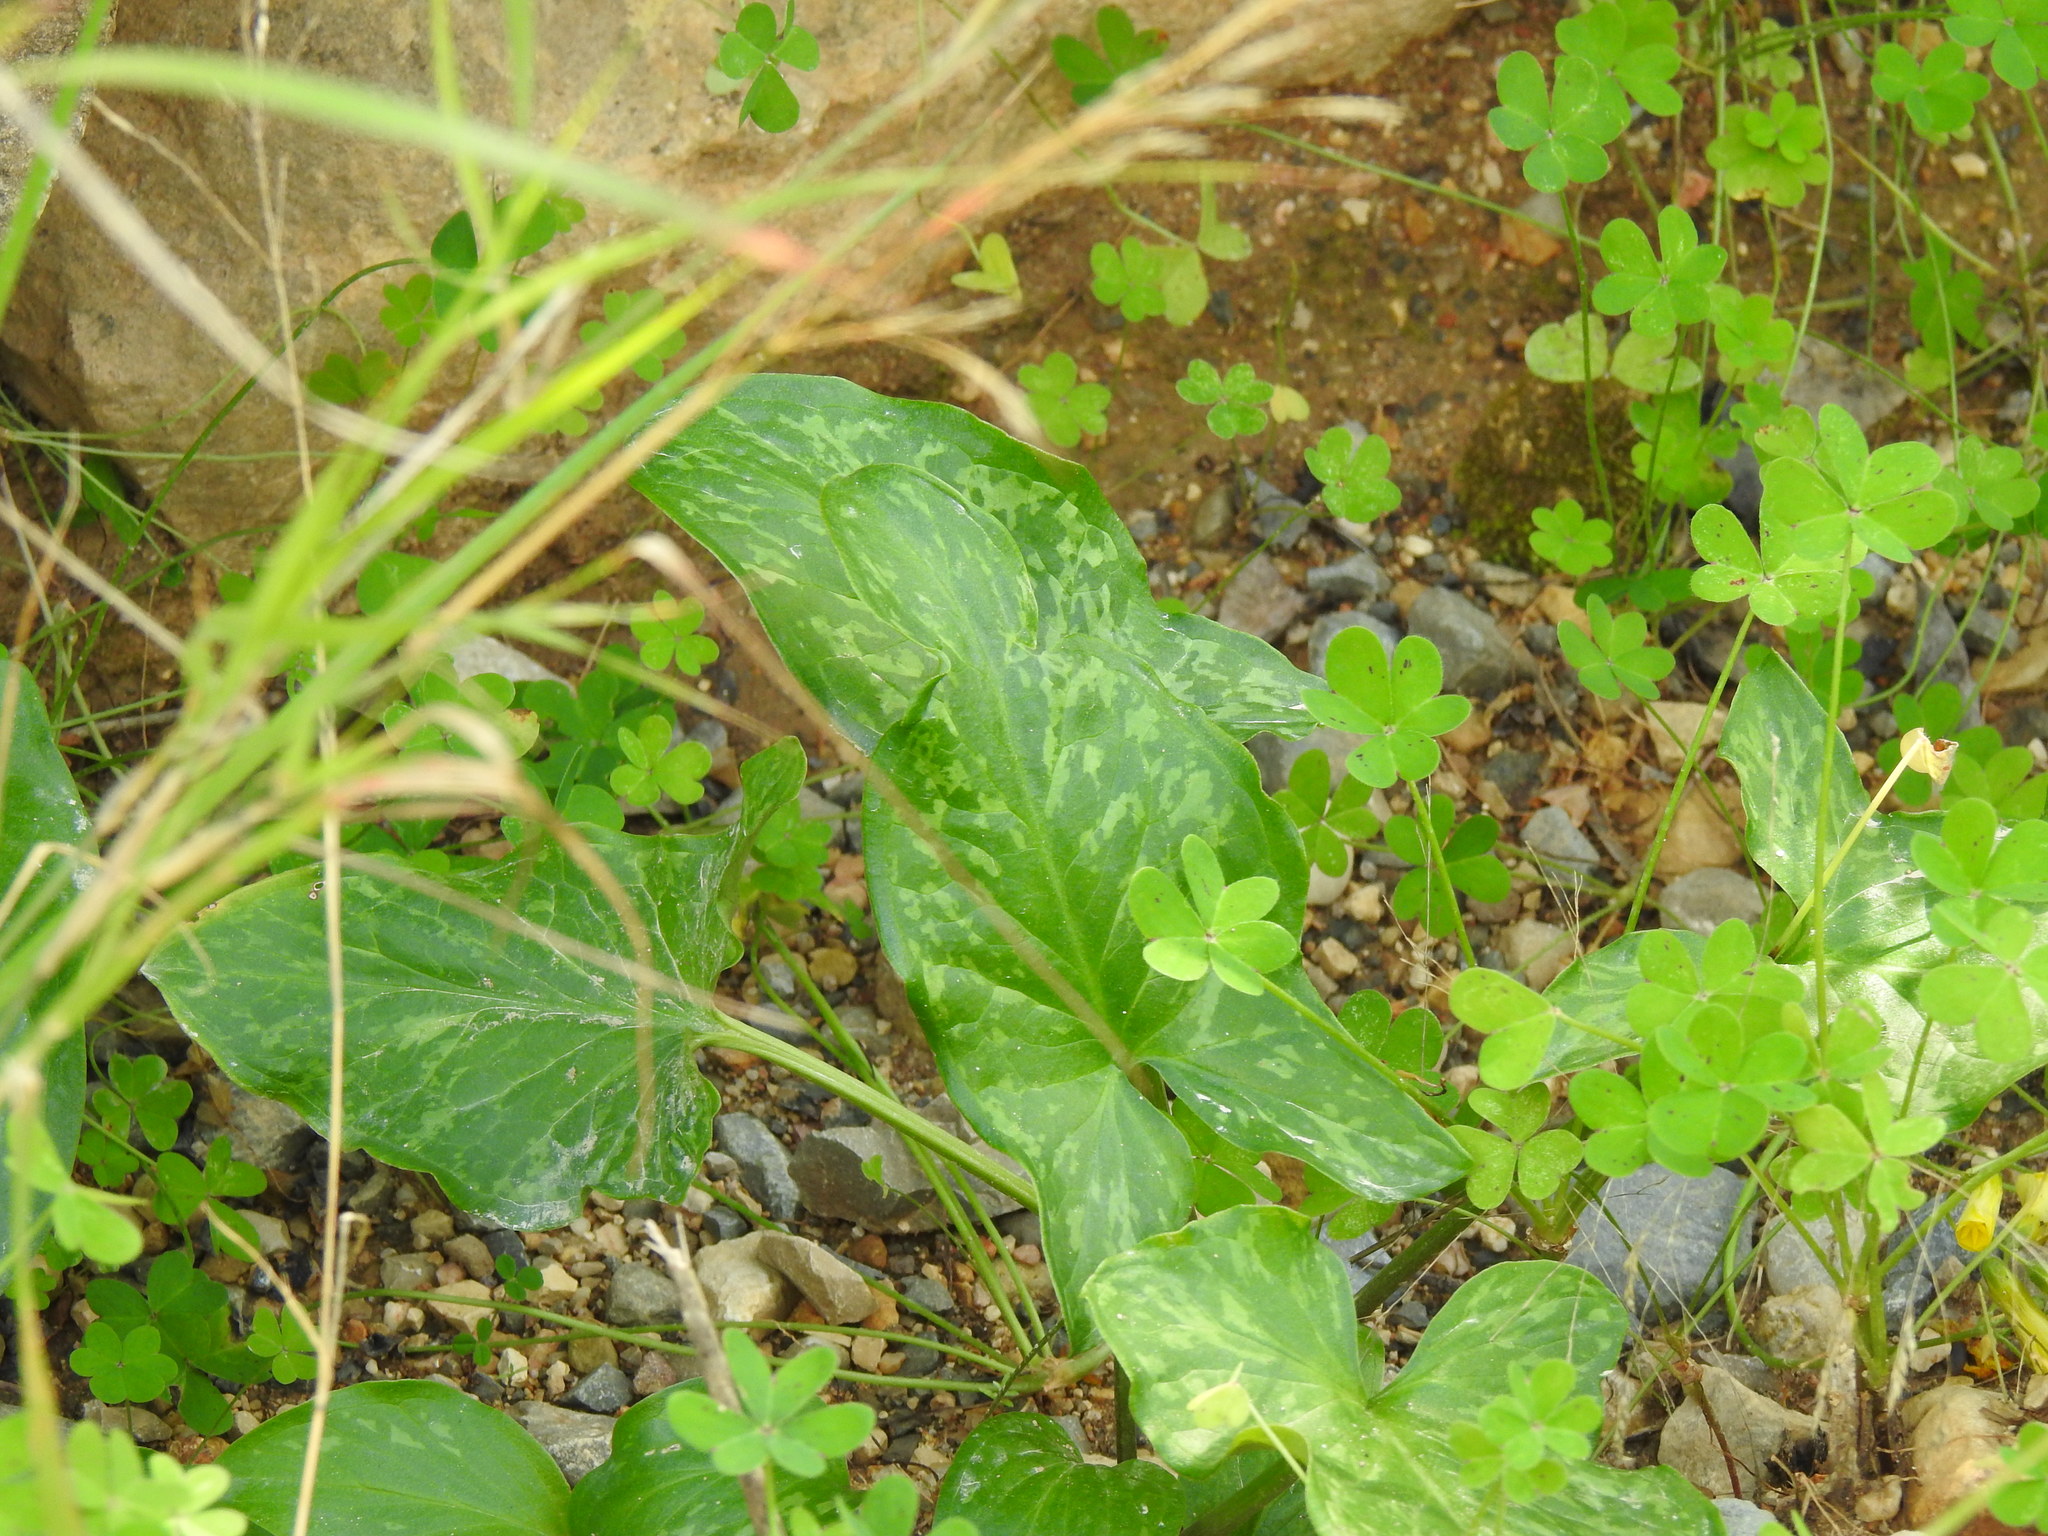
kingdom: Plantae
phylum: Tracheophyta
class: Liliopsida
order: Alismatales
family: Araceae
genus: Arum
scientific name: Arum italicum
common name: Italian lords-and-ladies
